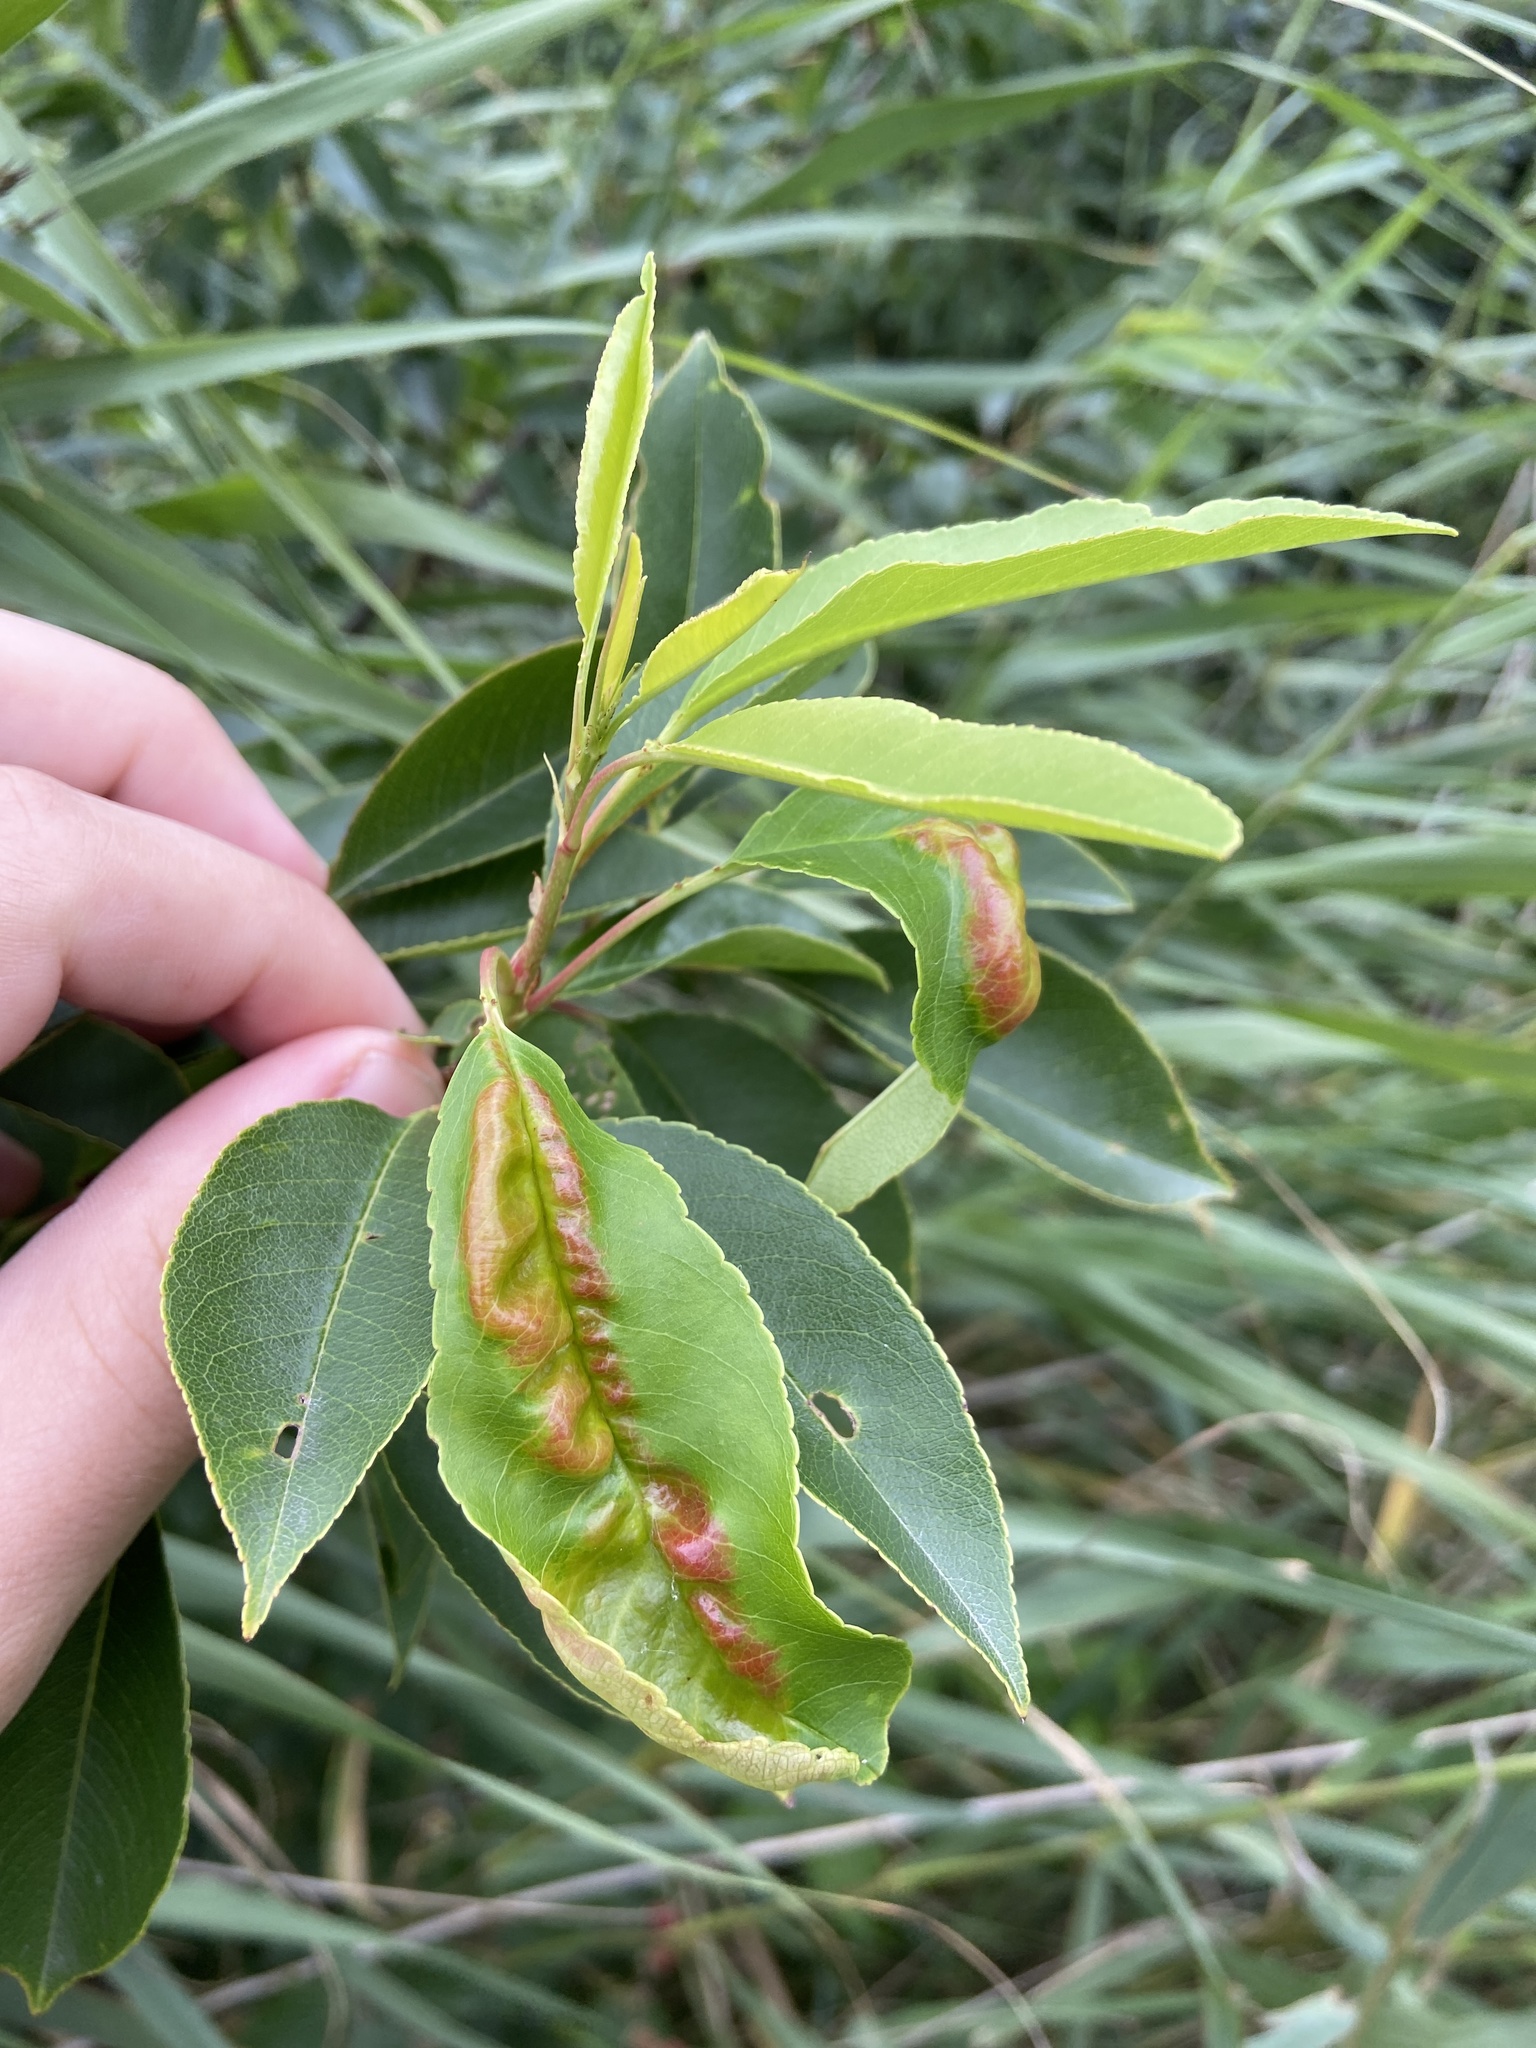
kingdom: Fungi
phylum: Ascomycota
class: Taphrinomycetes
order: Taphrinales
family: Taphrinaceae
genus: Taphrina
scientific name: Taphrina deformans
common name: Peach leaf curl
